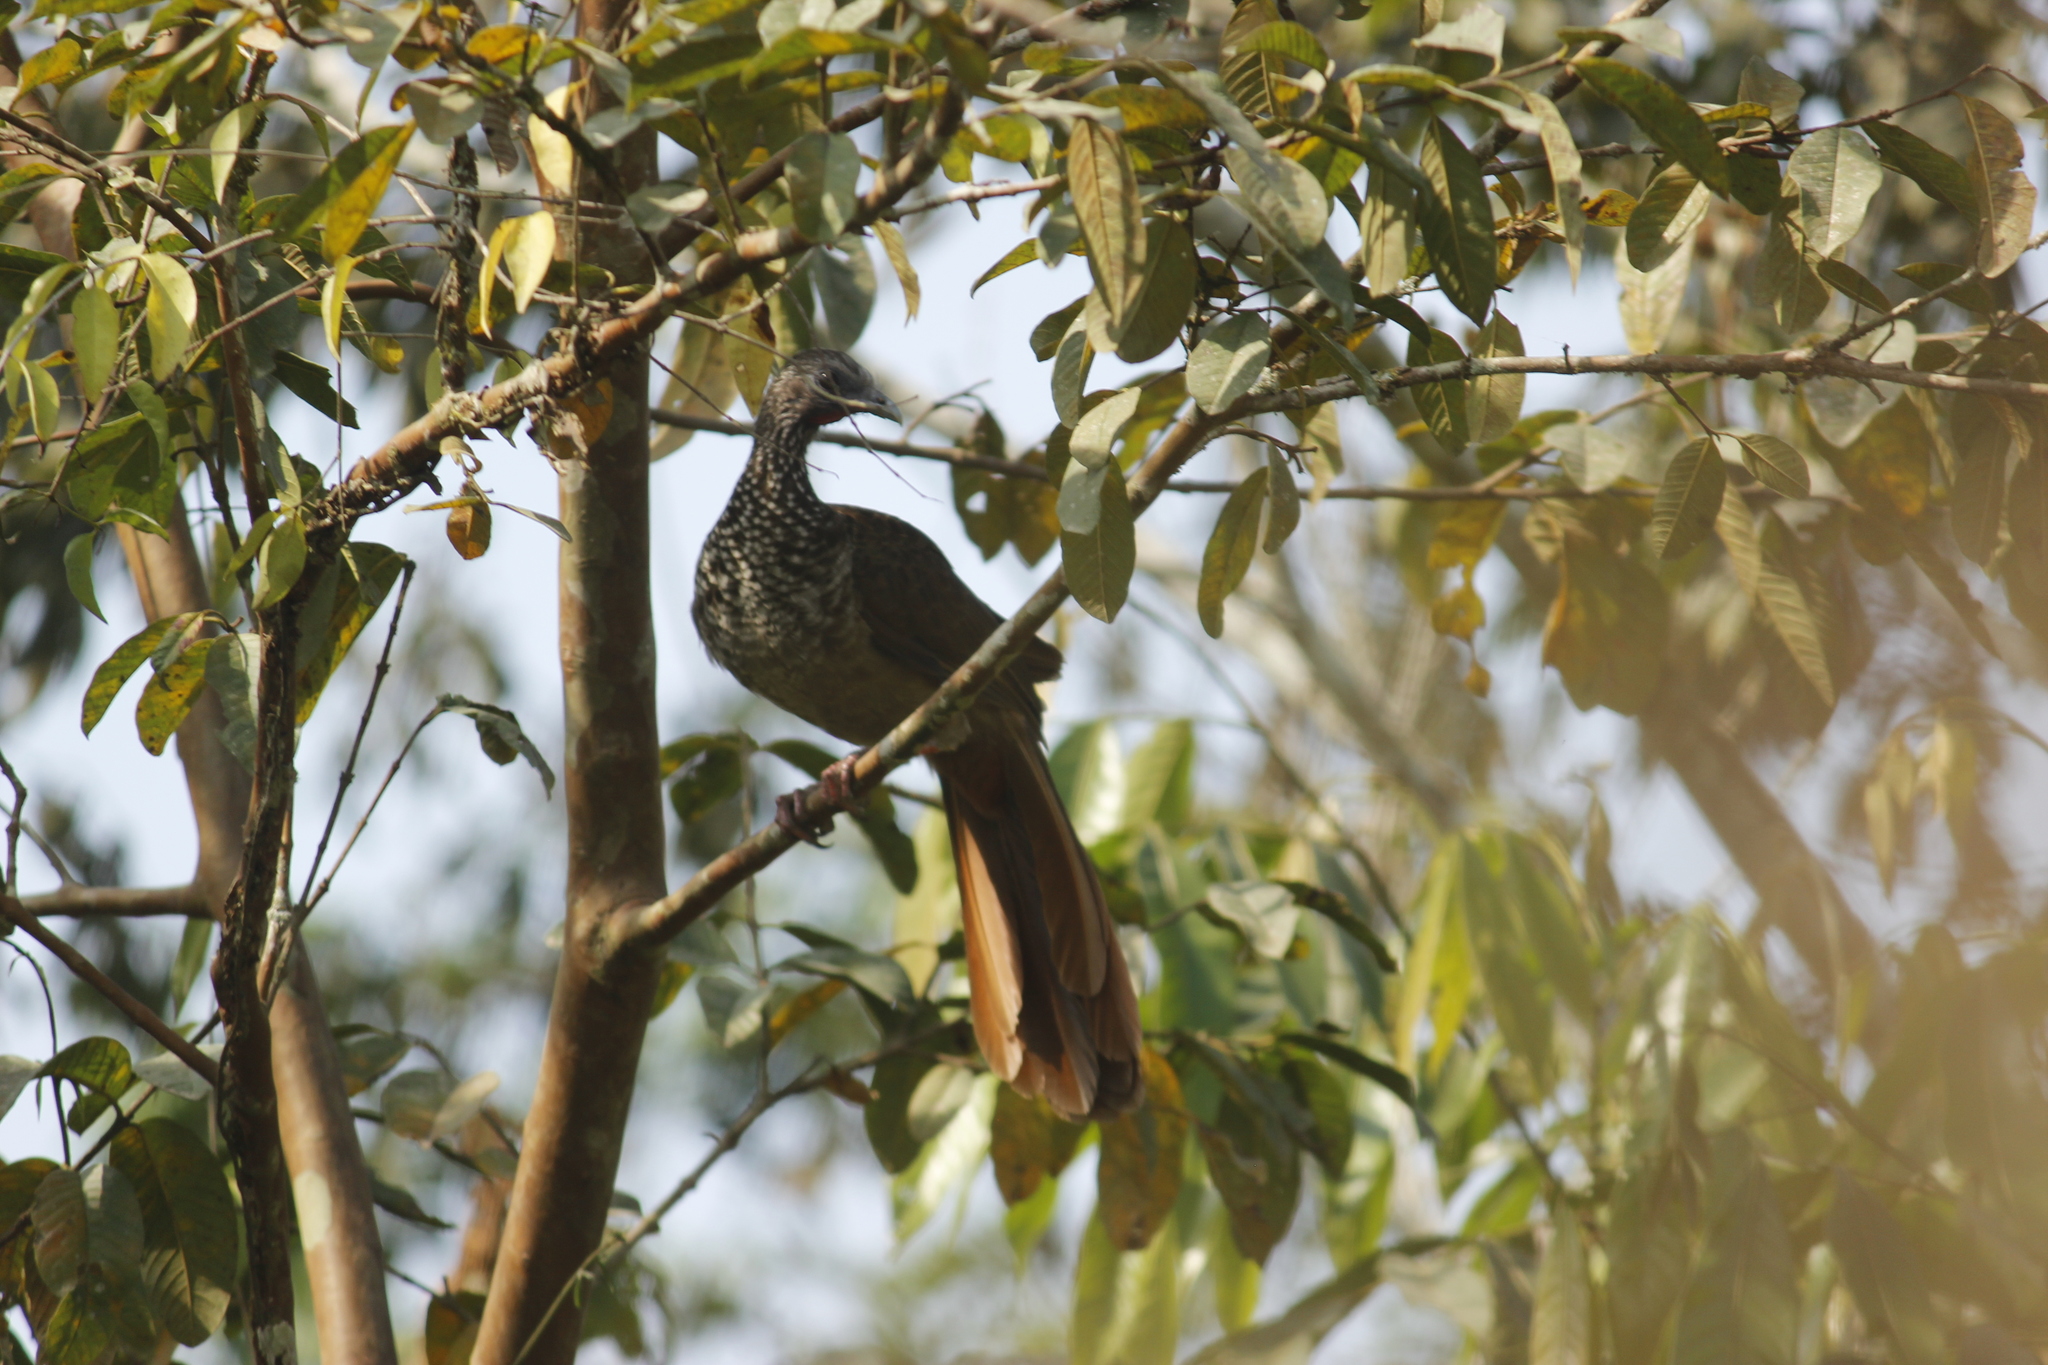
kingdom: Animalia
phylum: Chordata
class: Aves
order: Galliformes
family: Cracidae
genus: Ortalis
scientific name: Ortalis guttata
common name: Speckled chachalaca
